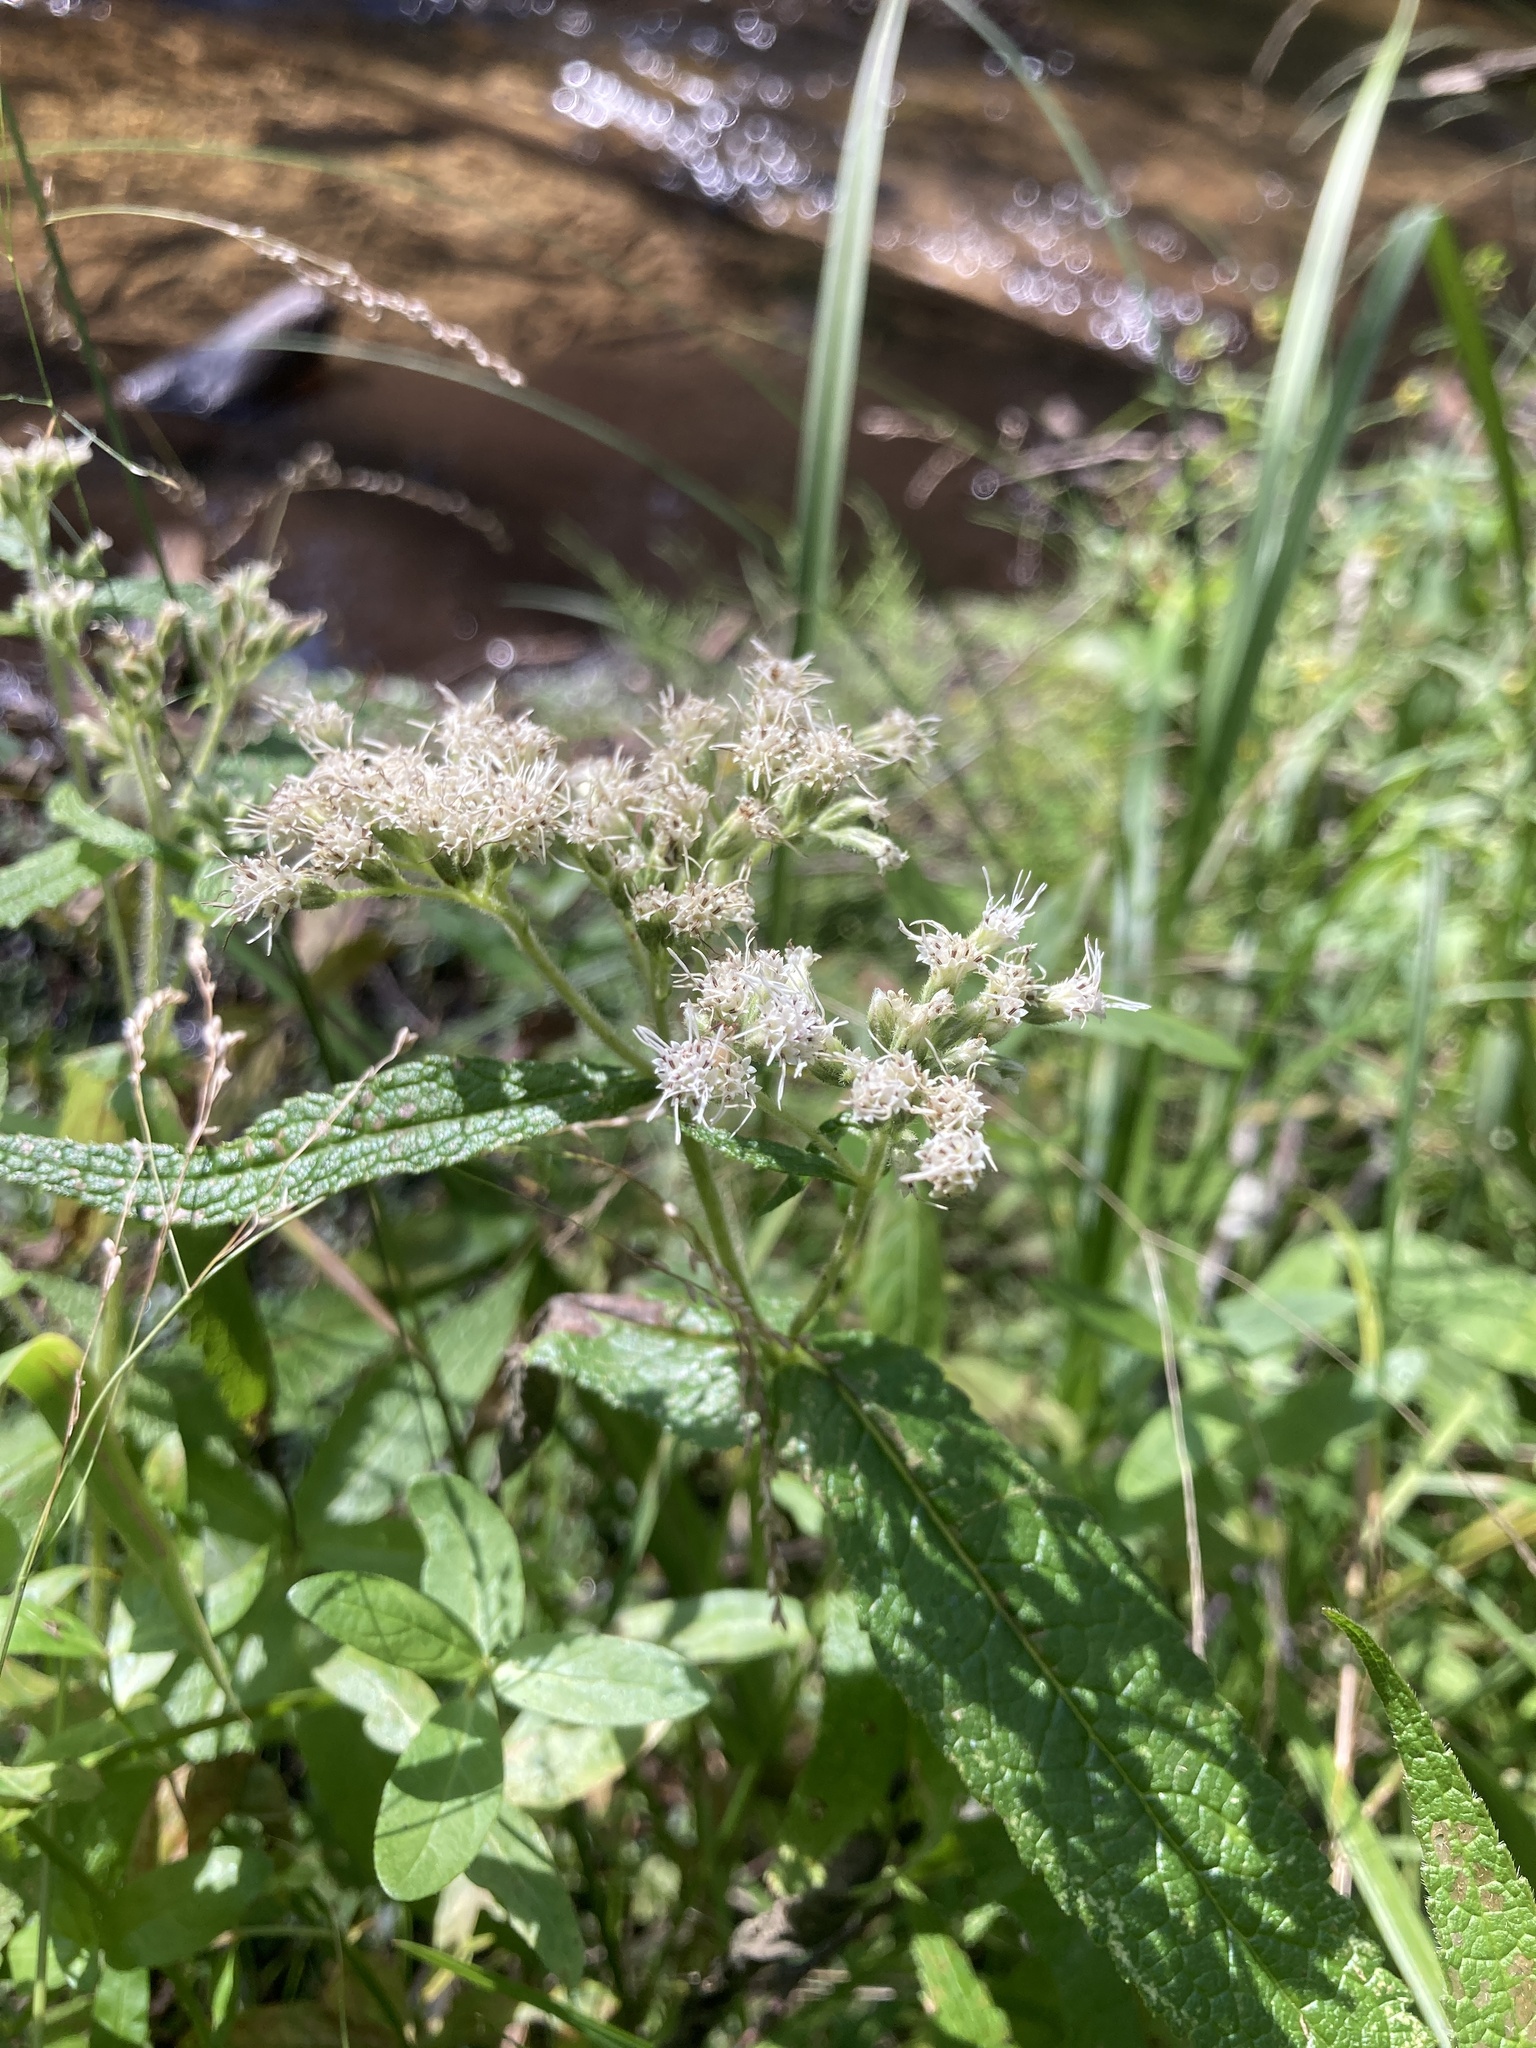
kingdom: Plantae
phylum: Tracheophyta
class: Magnoliopsida
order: Asterales
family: Asteraceae
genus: Eupatorium
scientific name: Eupatorium perfoliatum
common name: Boneset
